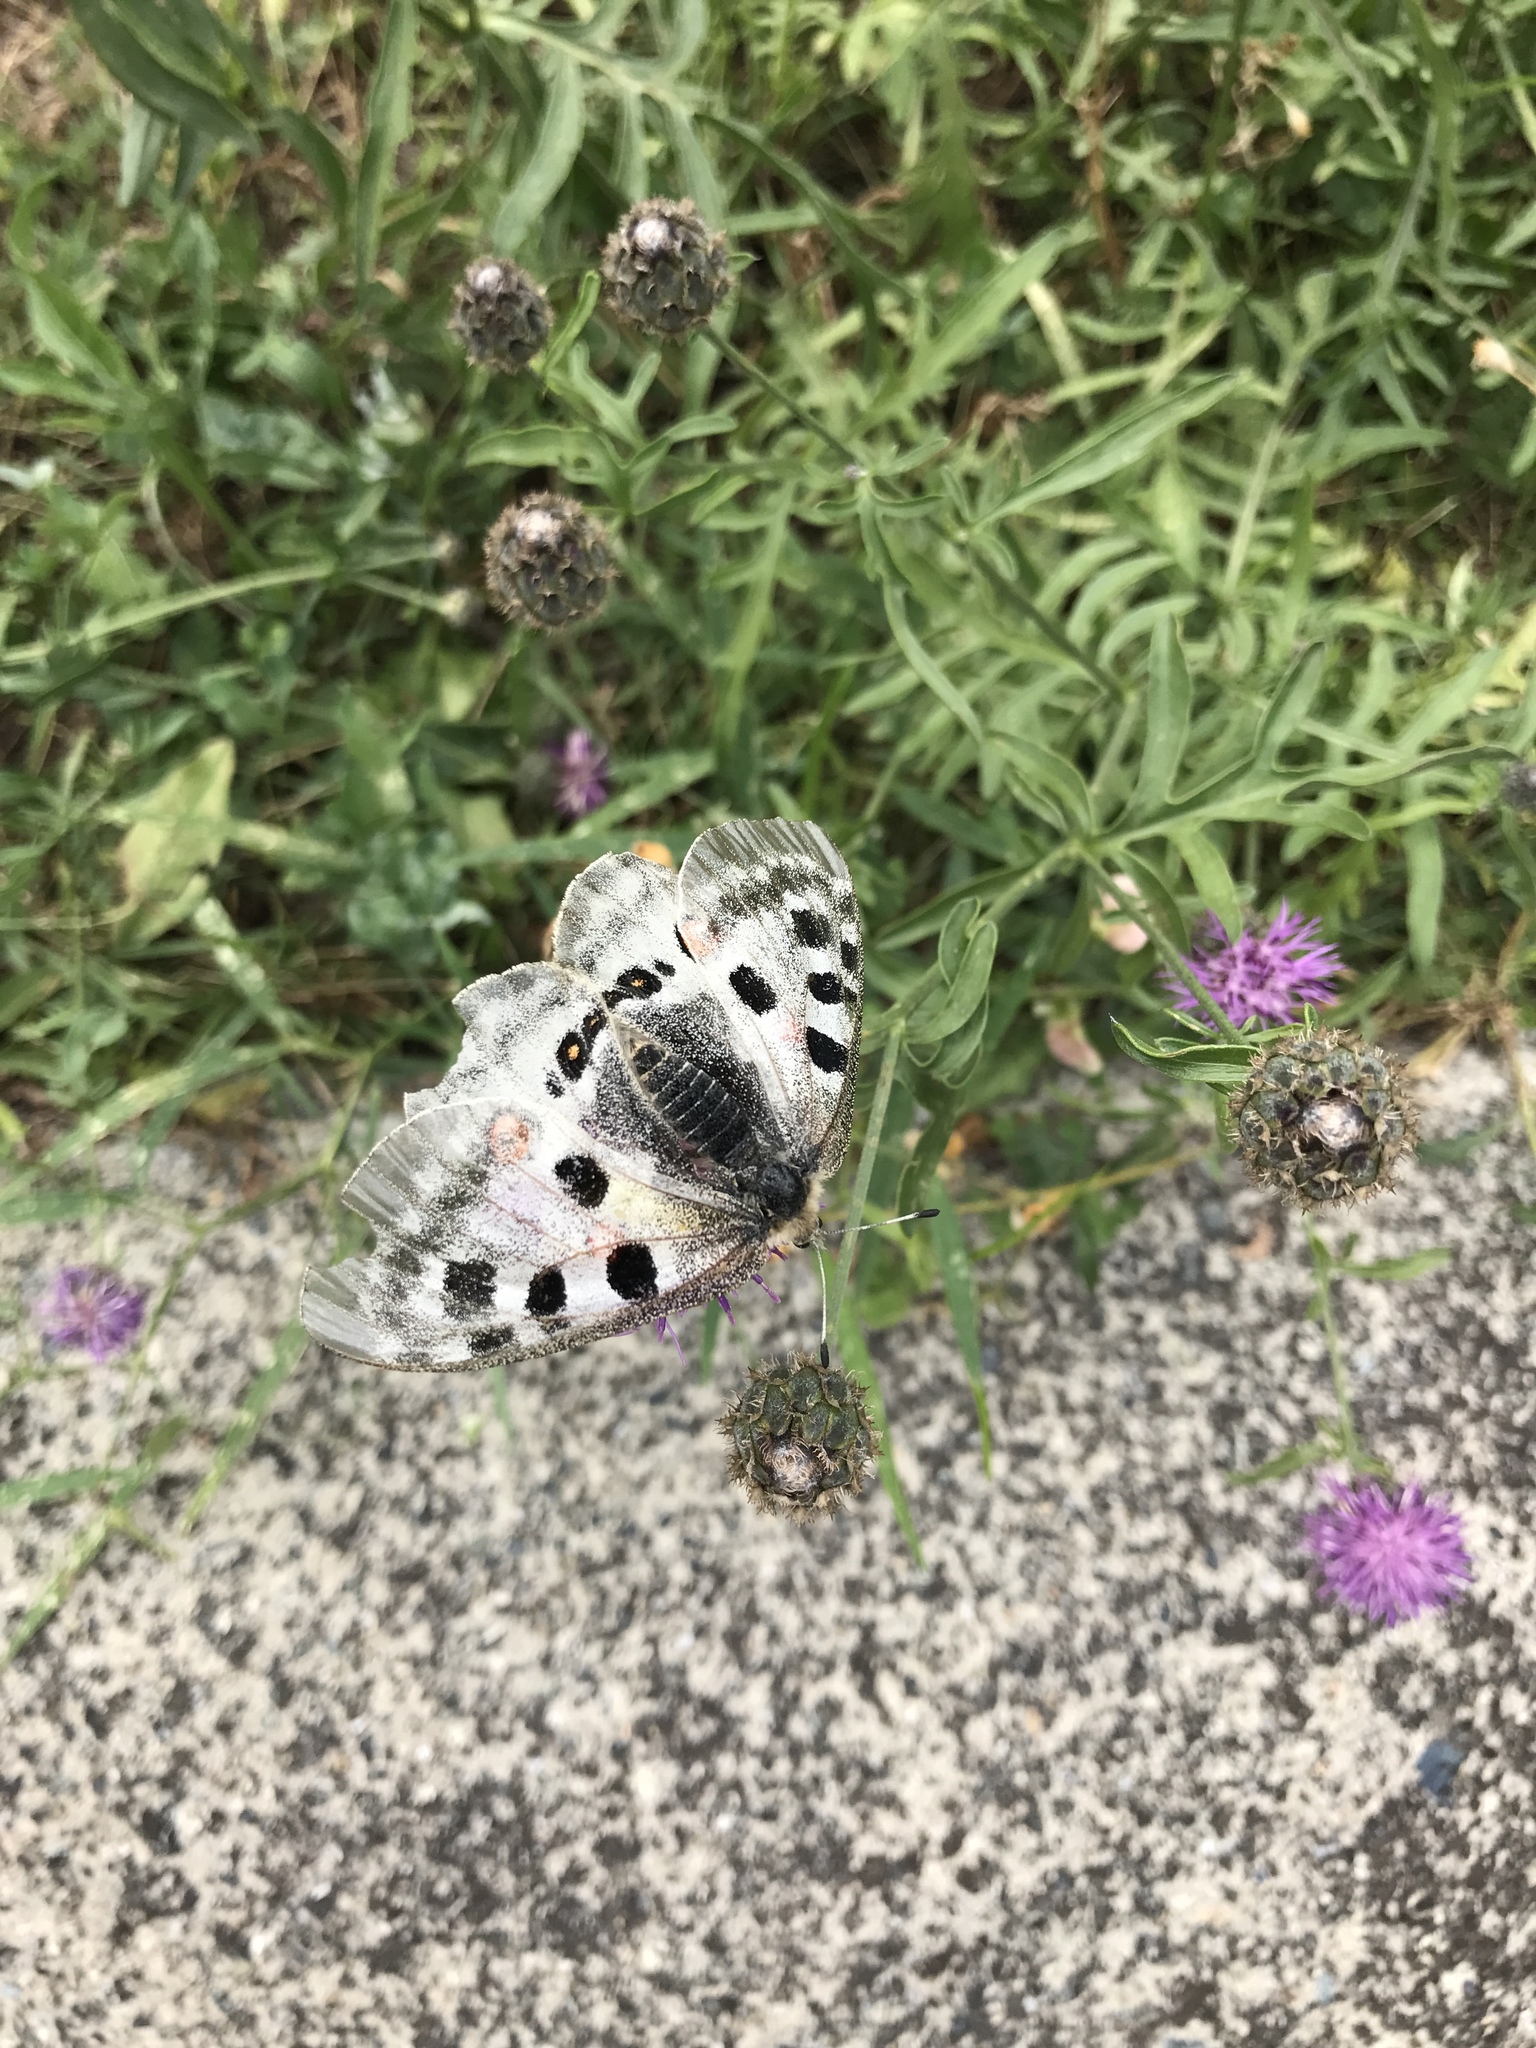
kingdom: Animalia
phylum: Arthropoda
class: Insecta
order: Lepidoptera
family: Papilionidae
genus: Parnassius
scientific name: Parnassius apollo
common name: Apollo
